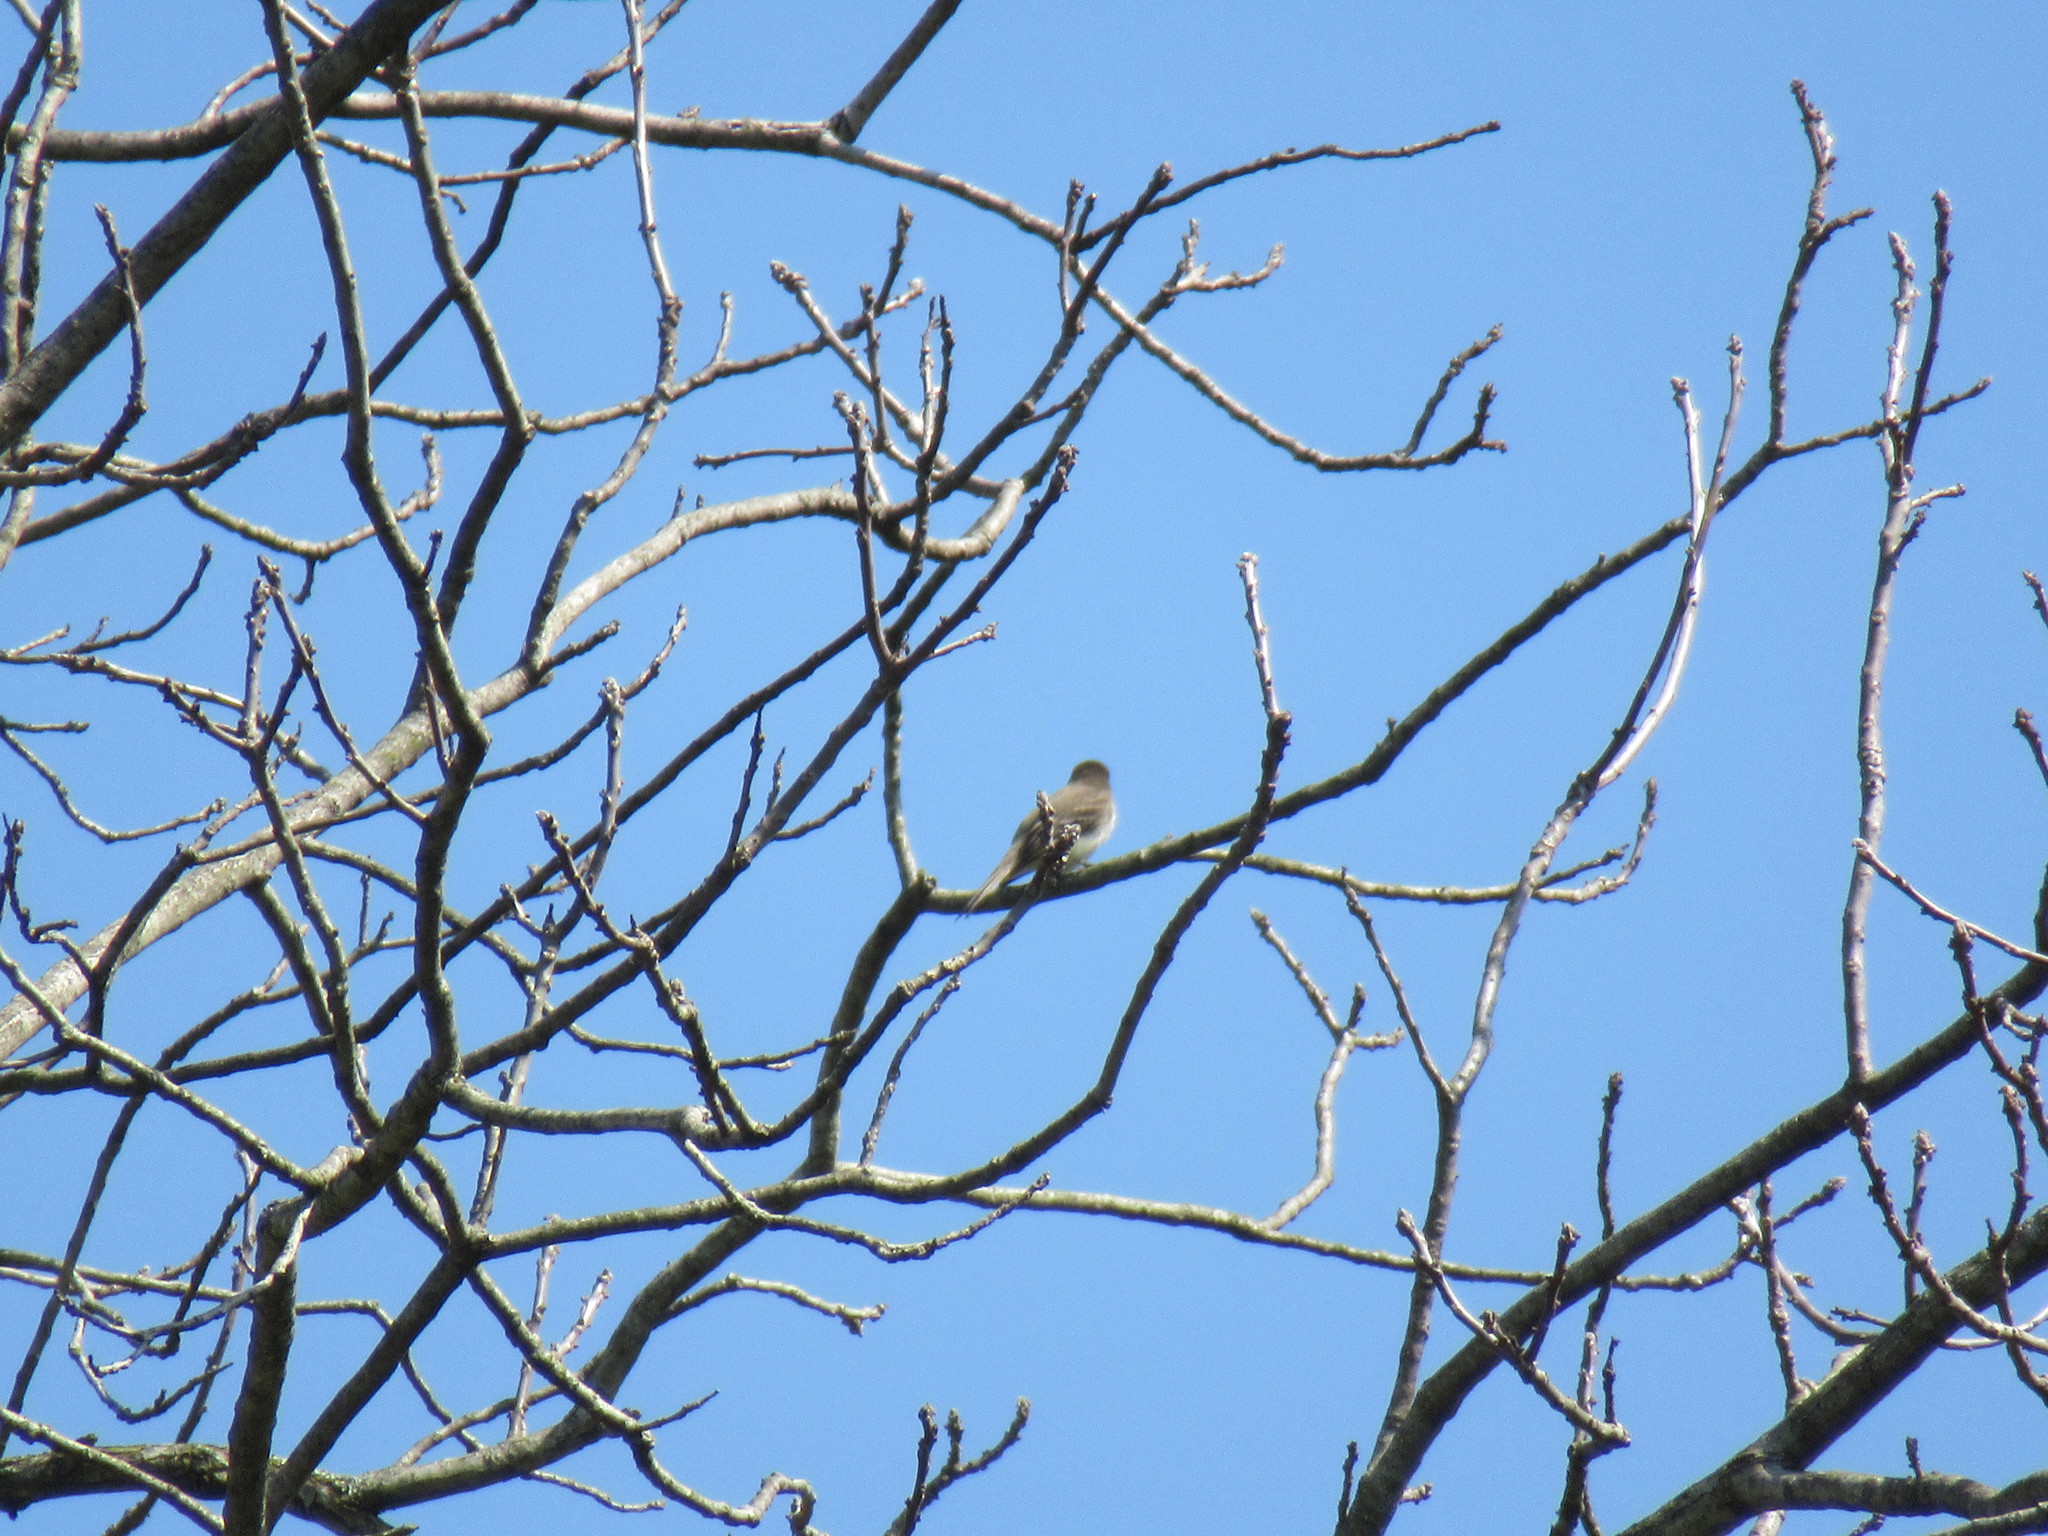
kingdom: Animalia
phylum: Chordata
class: Aves
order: Passeriformes
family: Tyrannidae
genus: Sayornis
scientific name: Sayornis phoebe
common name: Eastern phoebe
